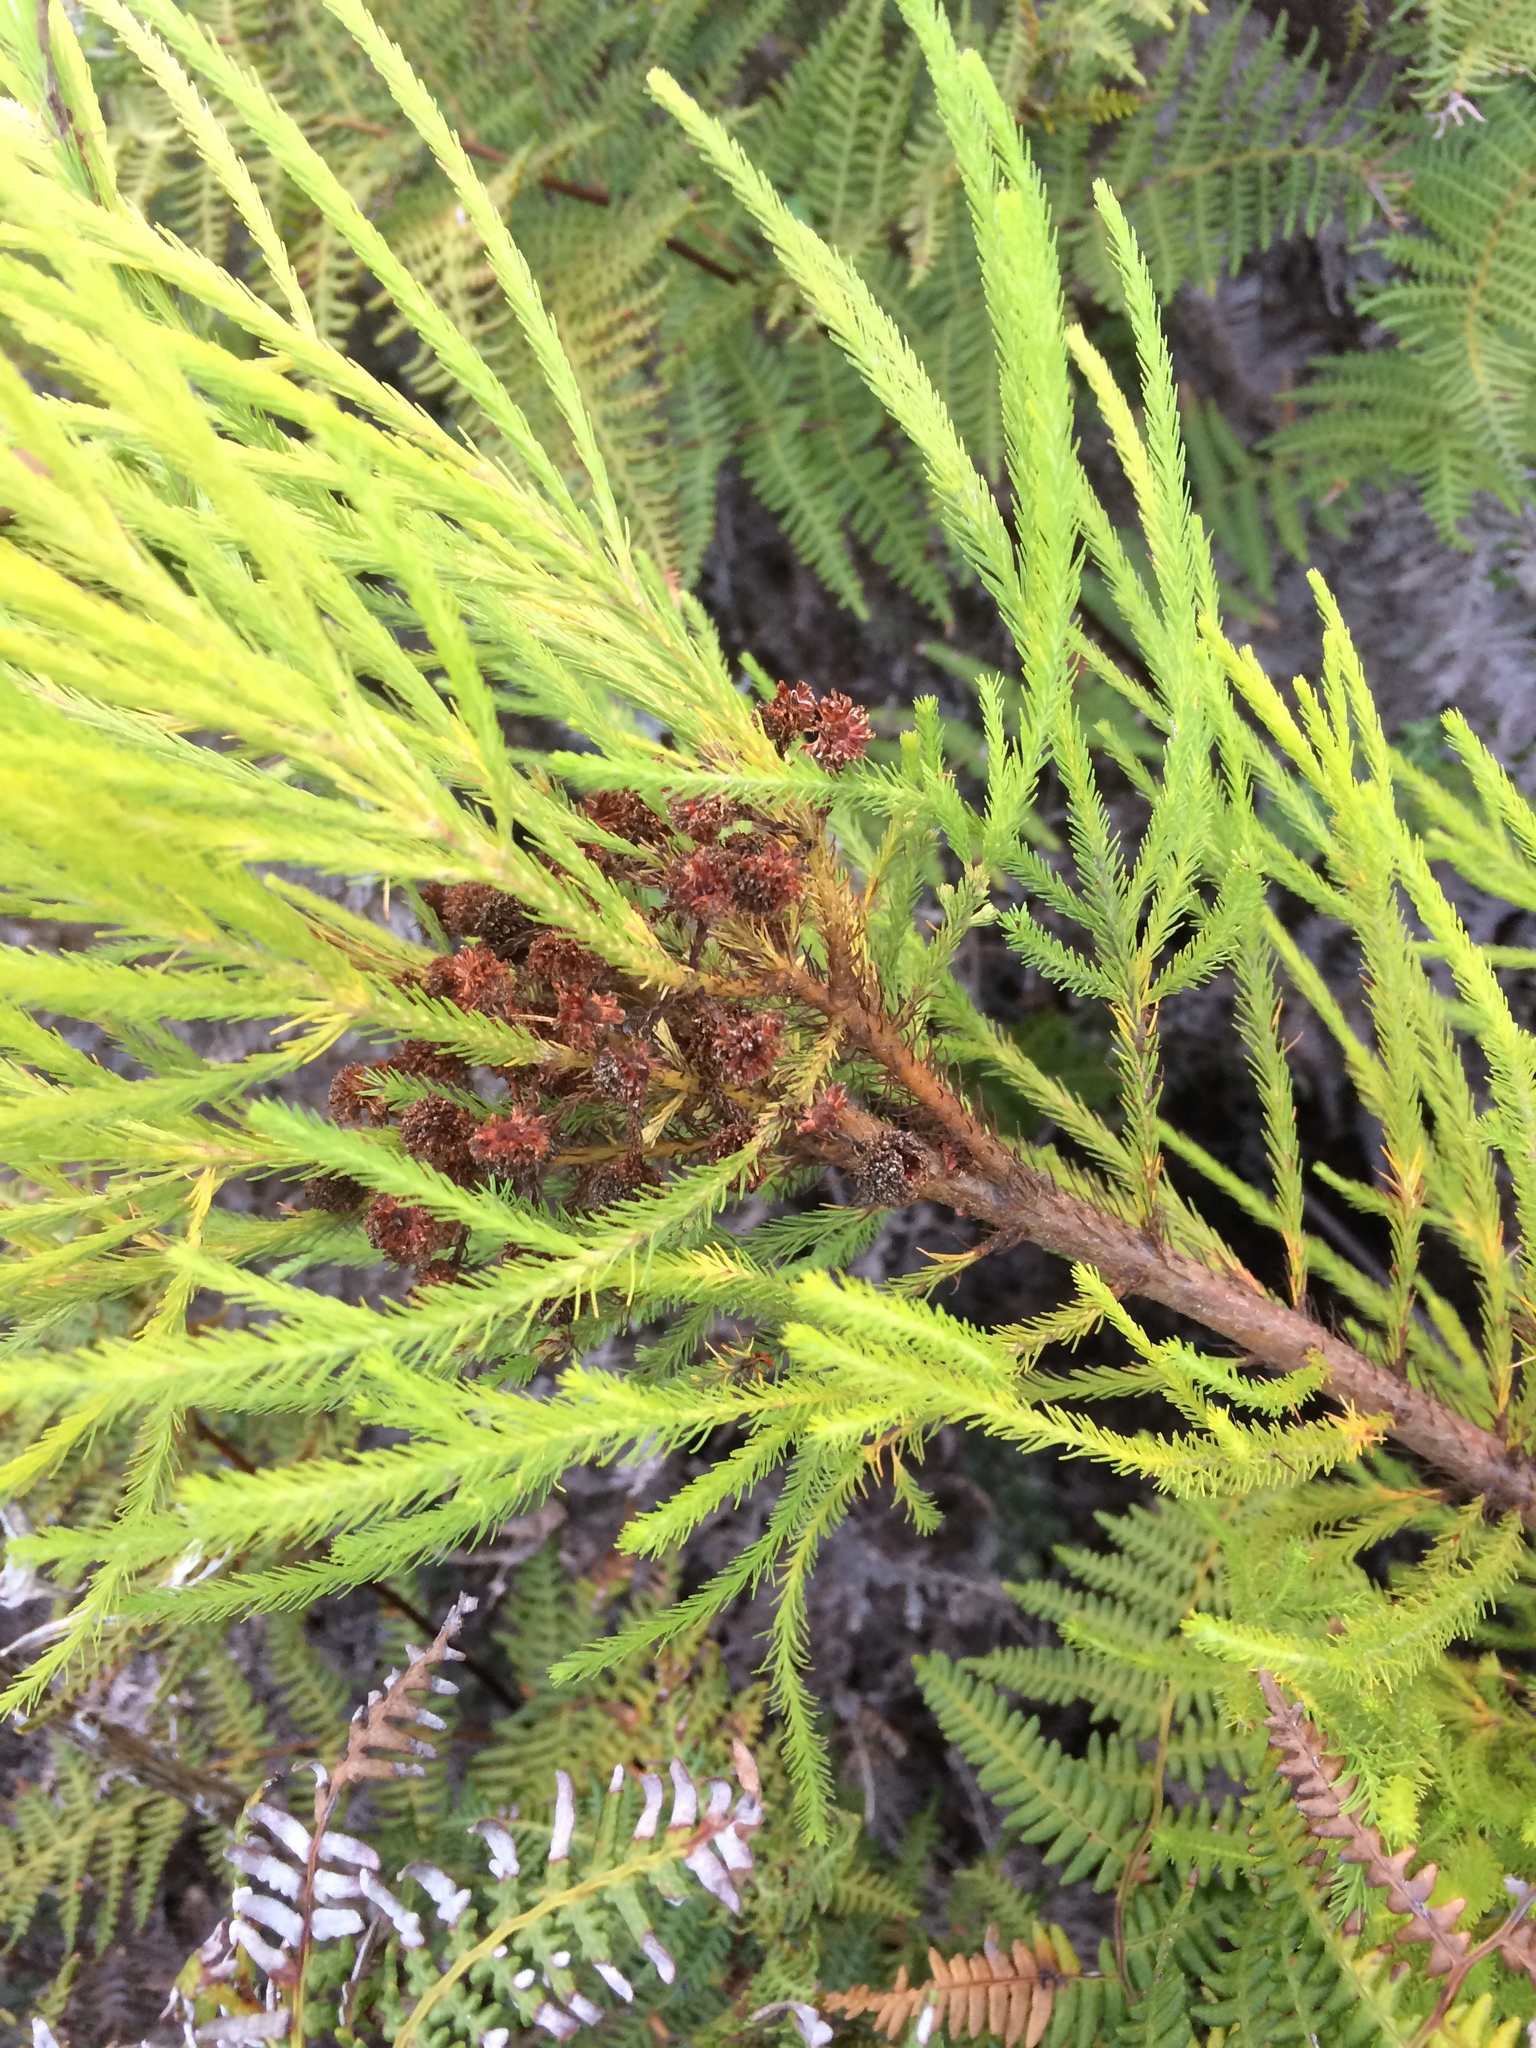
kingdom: Plantae
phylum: Tracheophyta
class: Magnoliopsida
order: Bruniales
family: Bruniaceae
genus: Berzelia
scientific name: Berzelia lanuginosa
